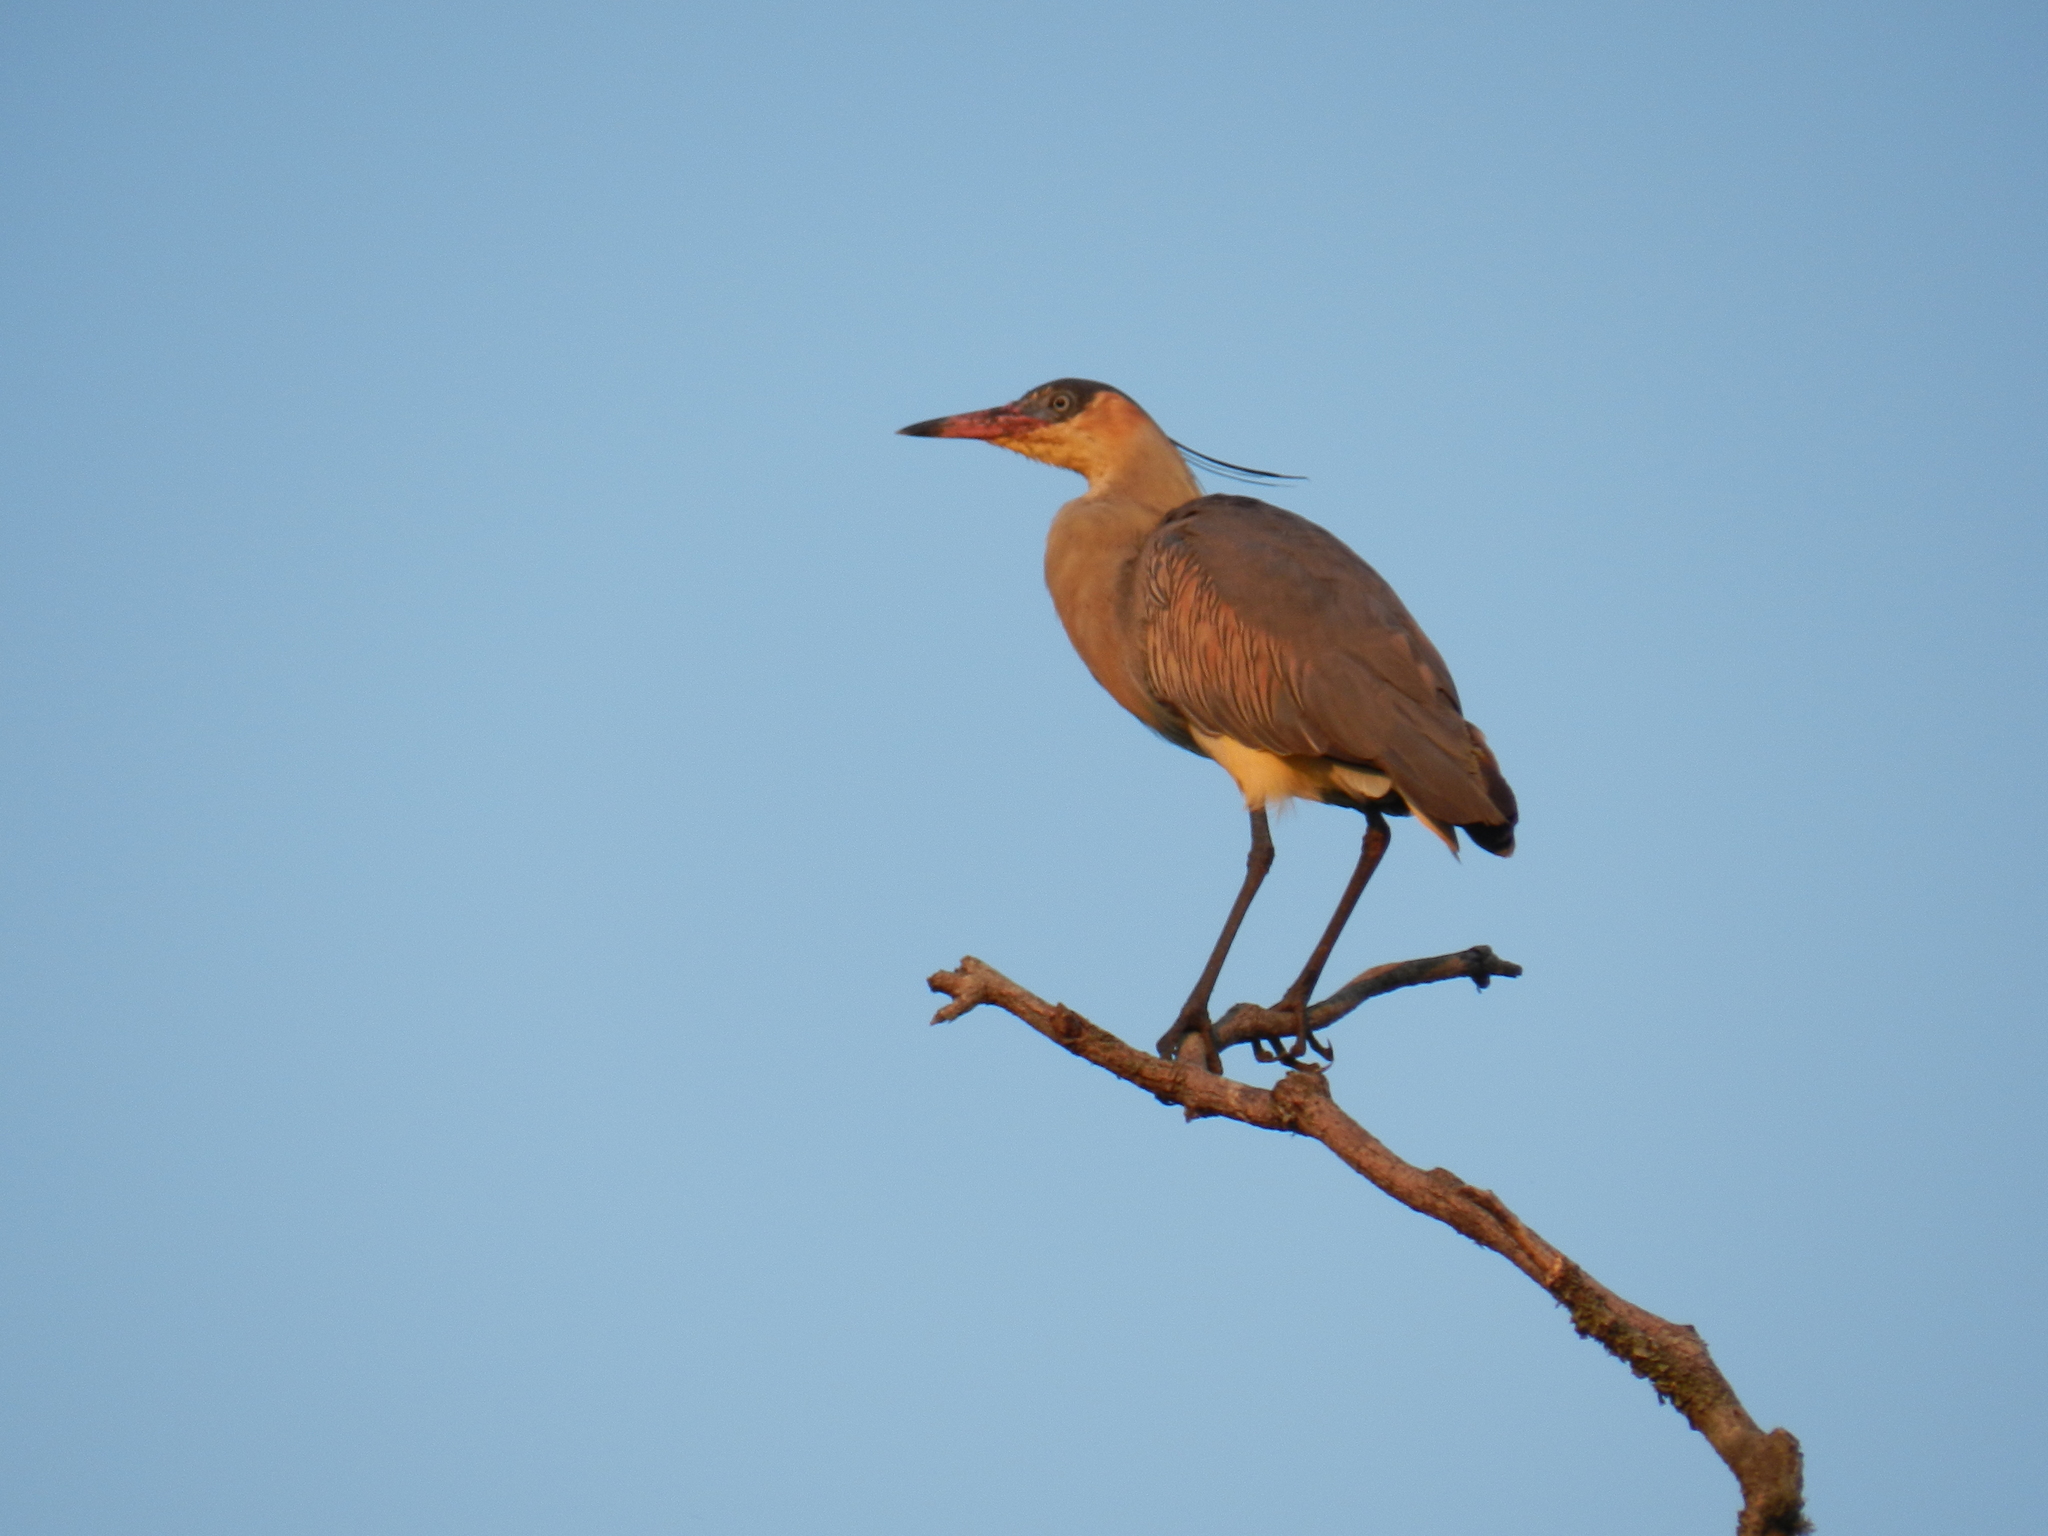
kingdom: Animalia
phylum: Chordata
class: Aves
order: Pelecaniformes
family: Ardeidae
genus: Syrigma
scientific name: Syrigma sibilatrix
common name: Whistling heron
